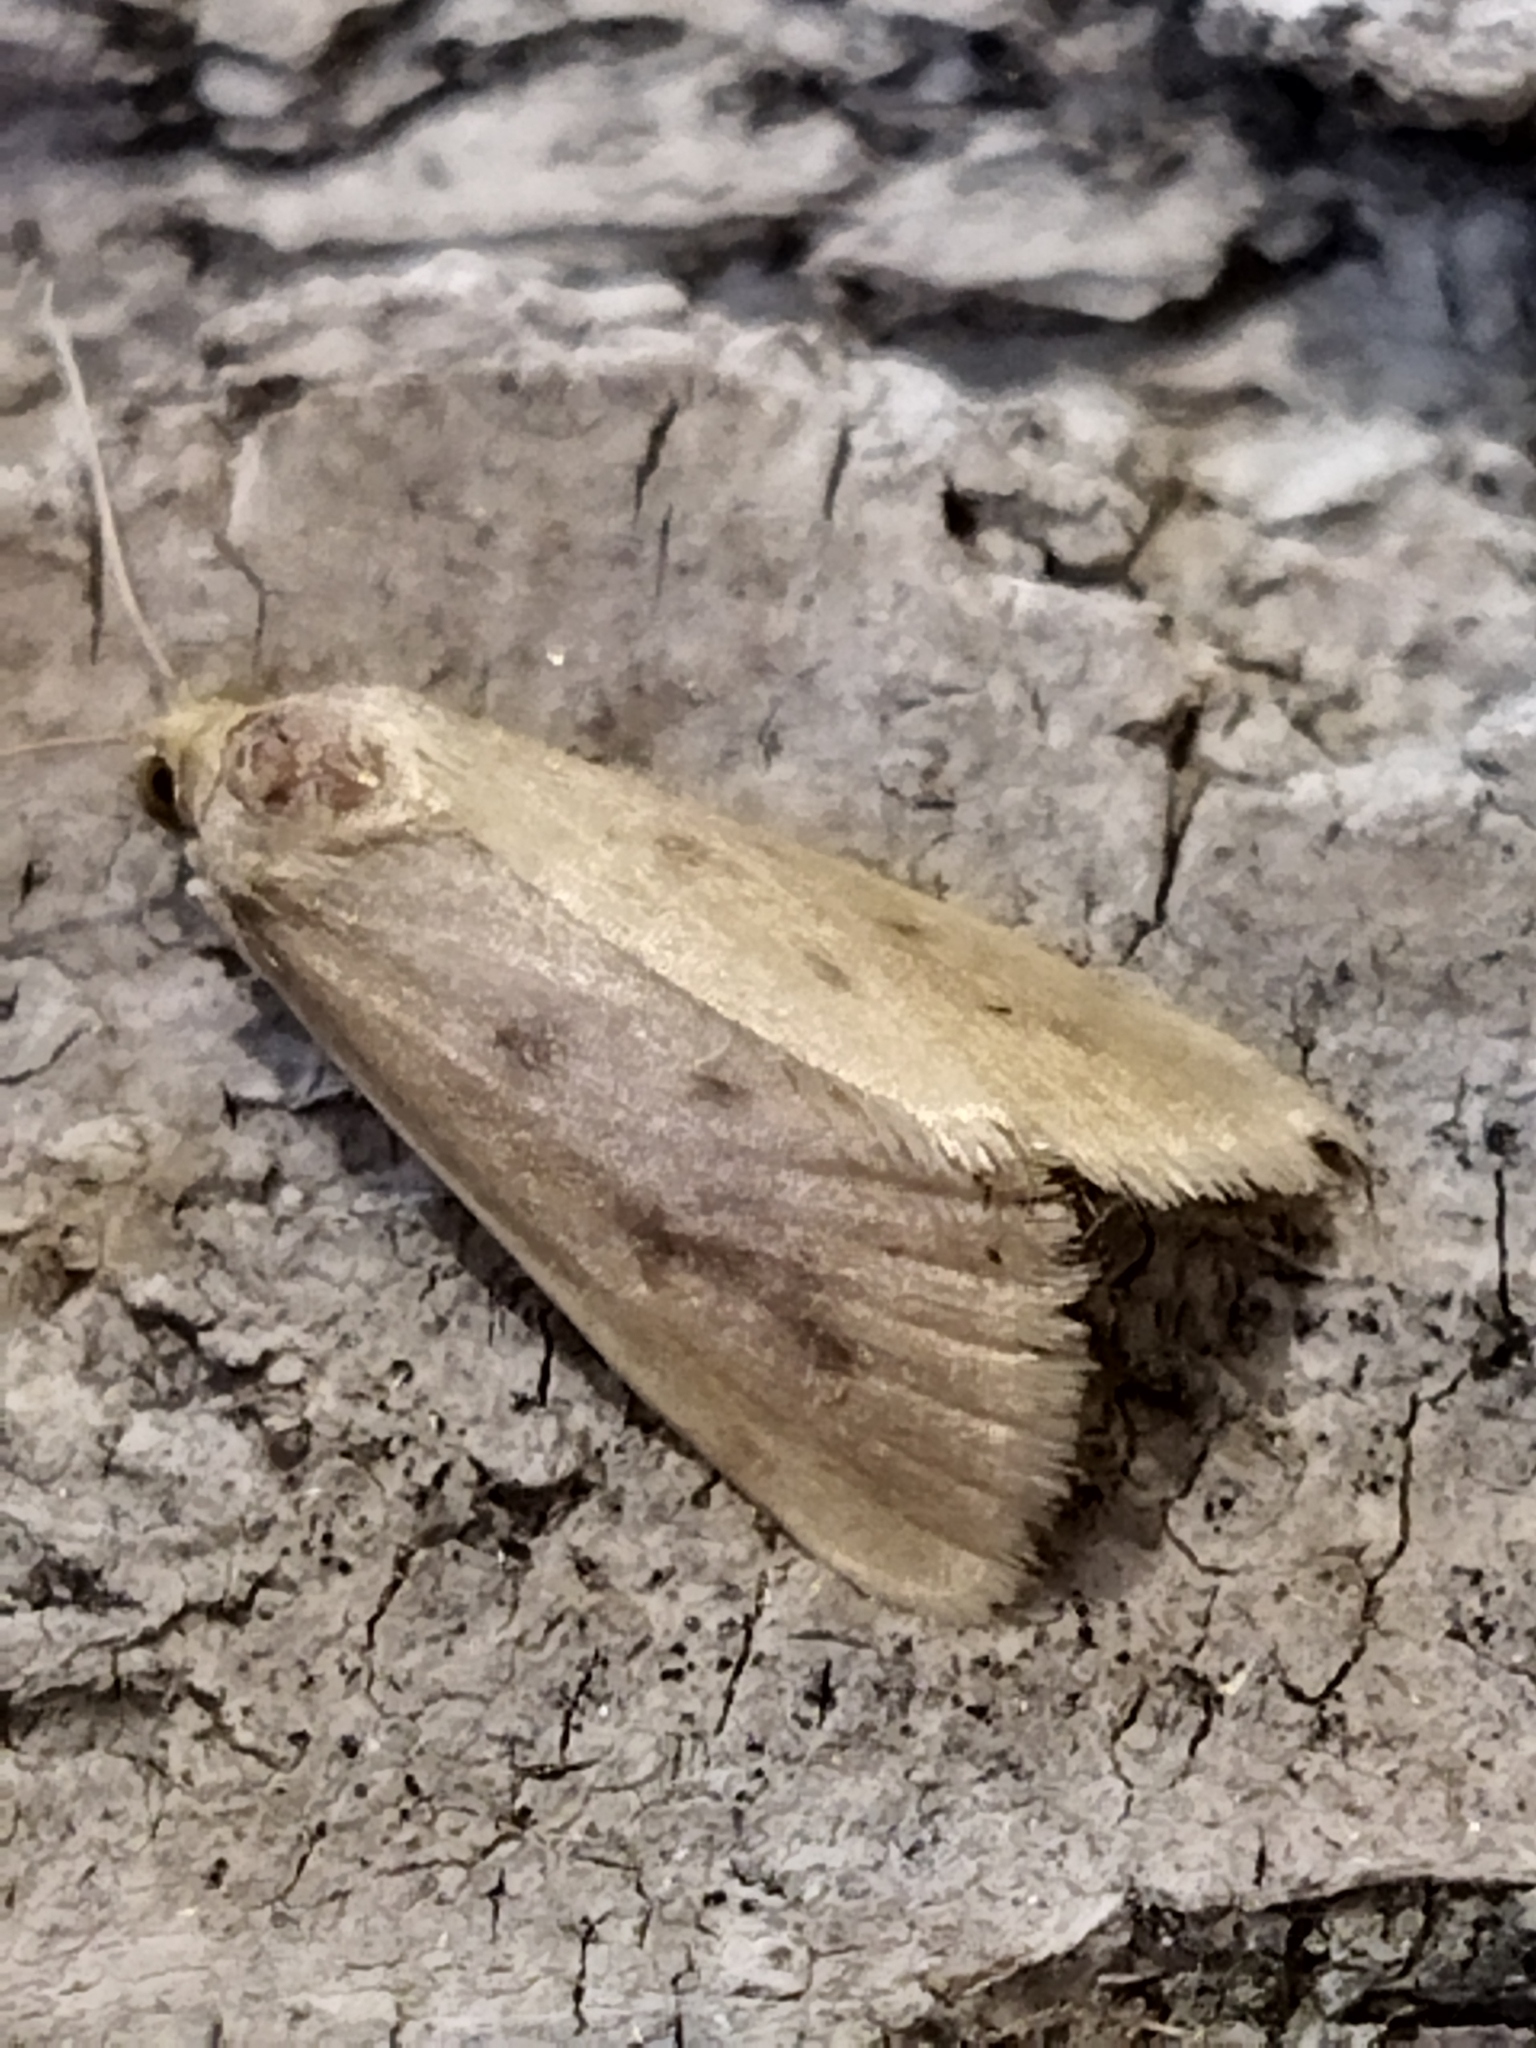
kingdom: Animalia
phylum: Arthropoda
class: Insecta
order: Lepidoptera
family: Crambidae
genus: Achyra
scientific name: Achyra nudalis
